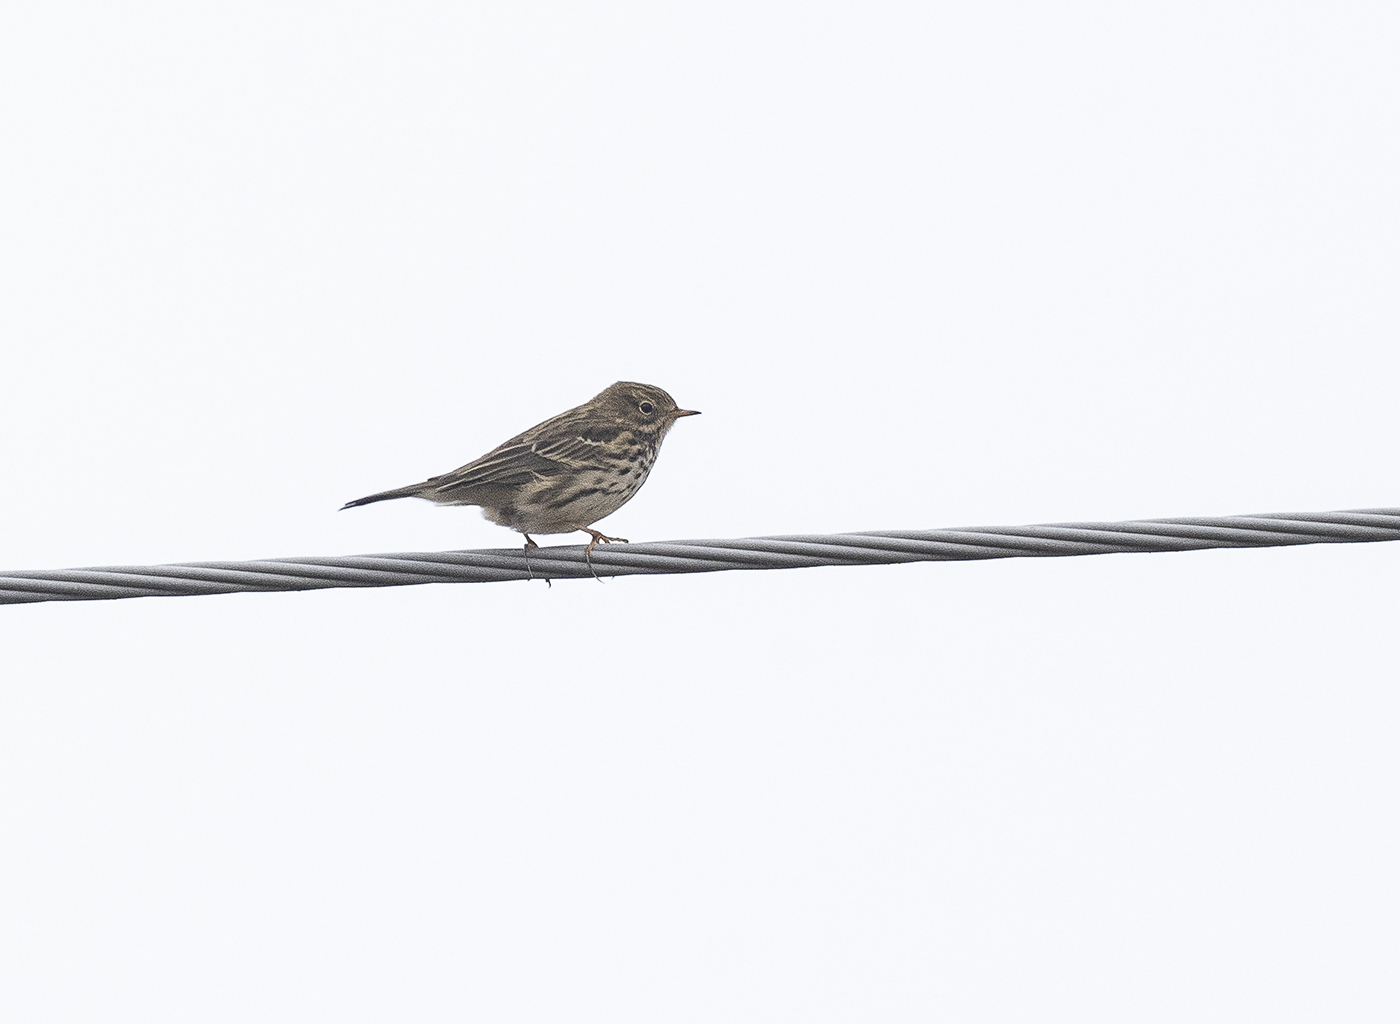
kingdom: Animalia
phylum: Chordata
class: Aves
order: Passeriformes
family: Motacillidae
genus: Anthus
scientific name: Anthus pratensis
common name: Meadow pipit
